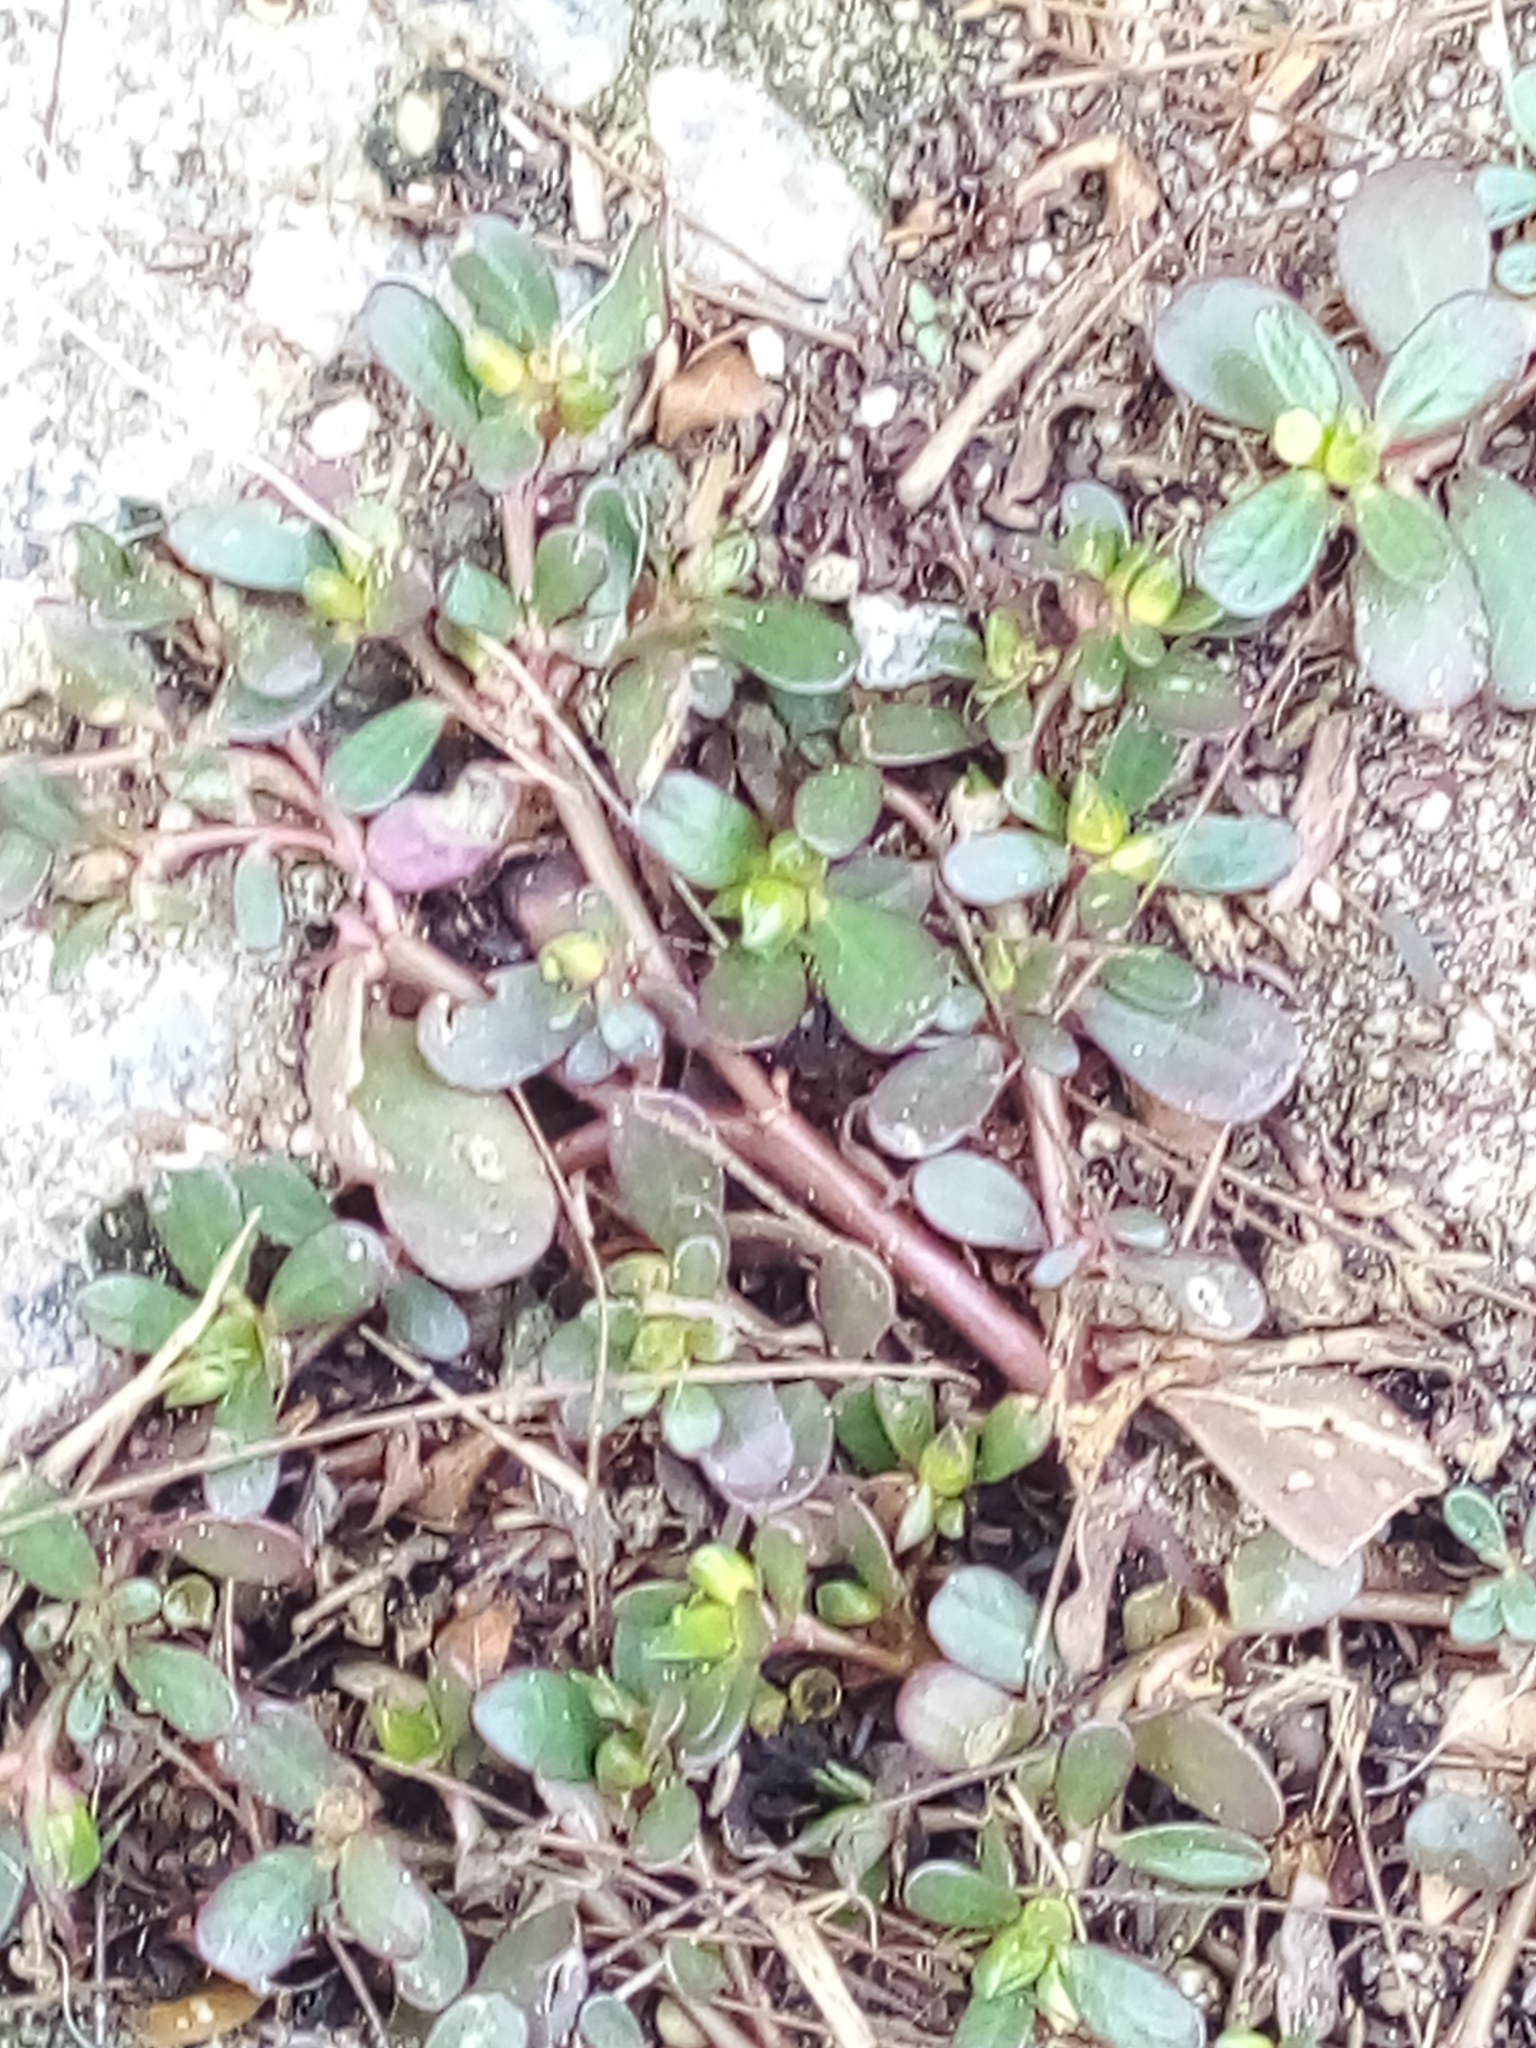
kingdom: Plantae
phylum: Tracheophyta
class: Magnoliopsida
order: Caryophyllales
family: Portulacaceae
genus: Portulaca
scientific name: Portulaca oleracea
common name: Common purslane
